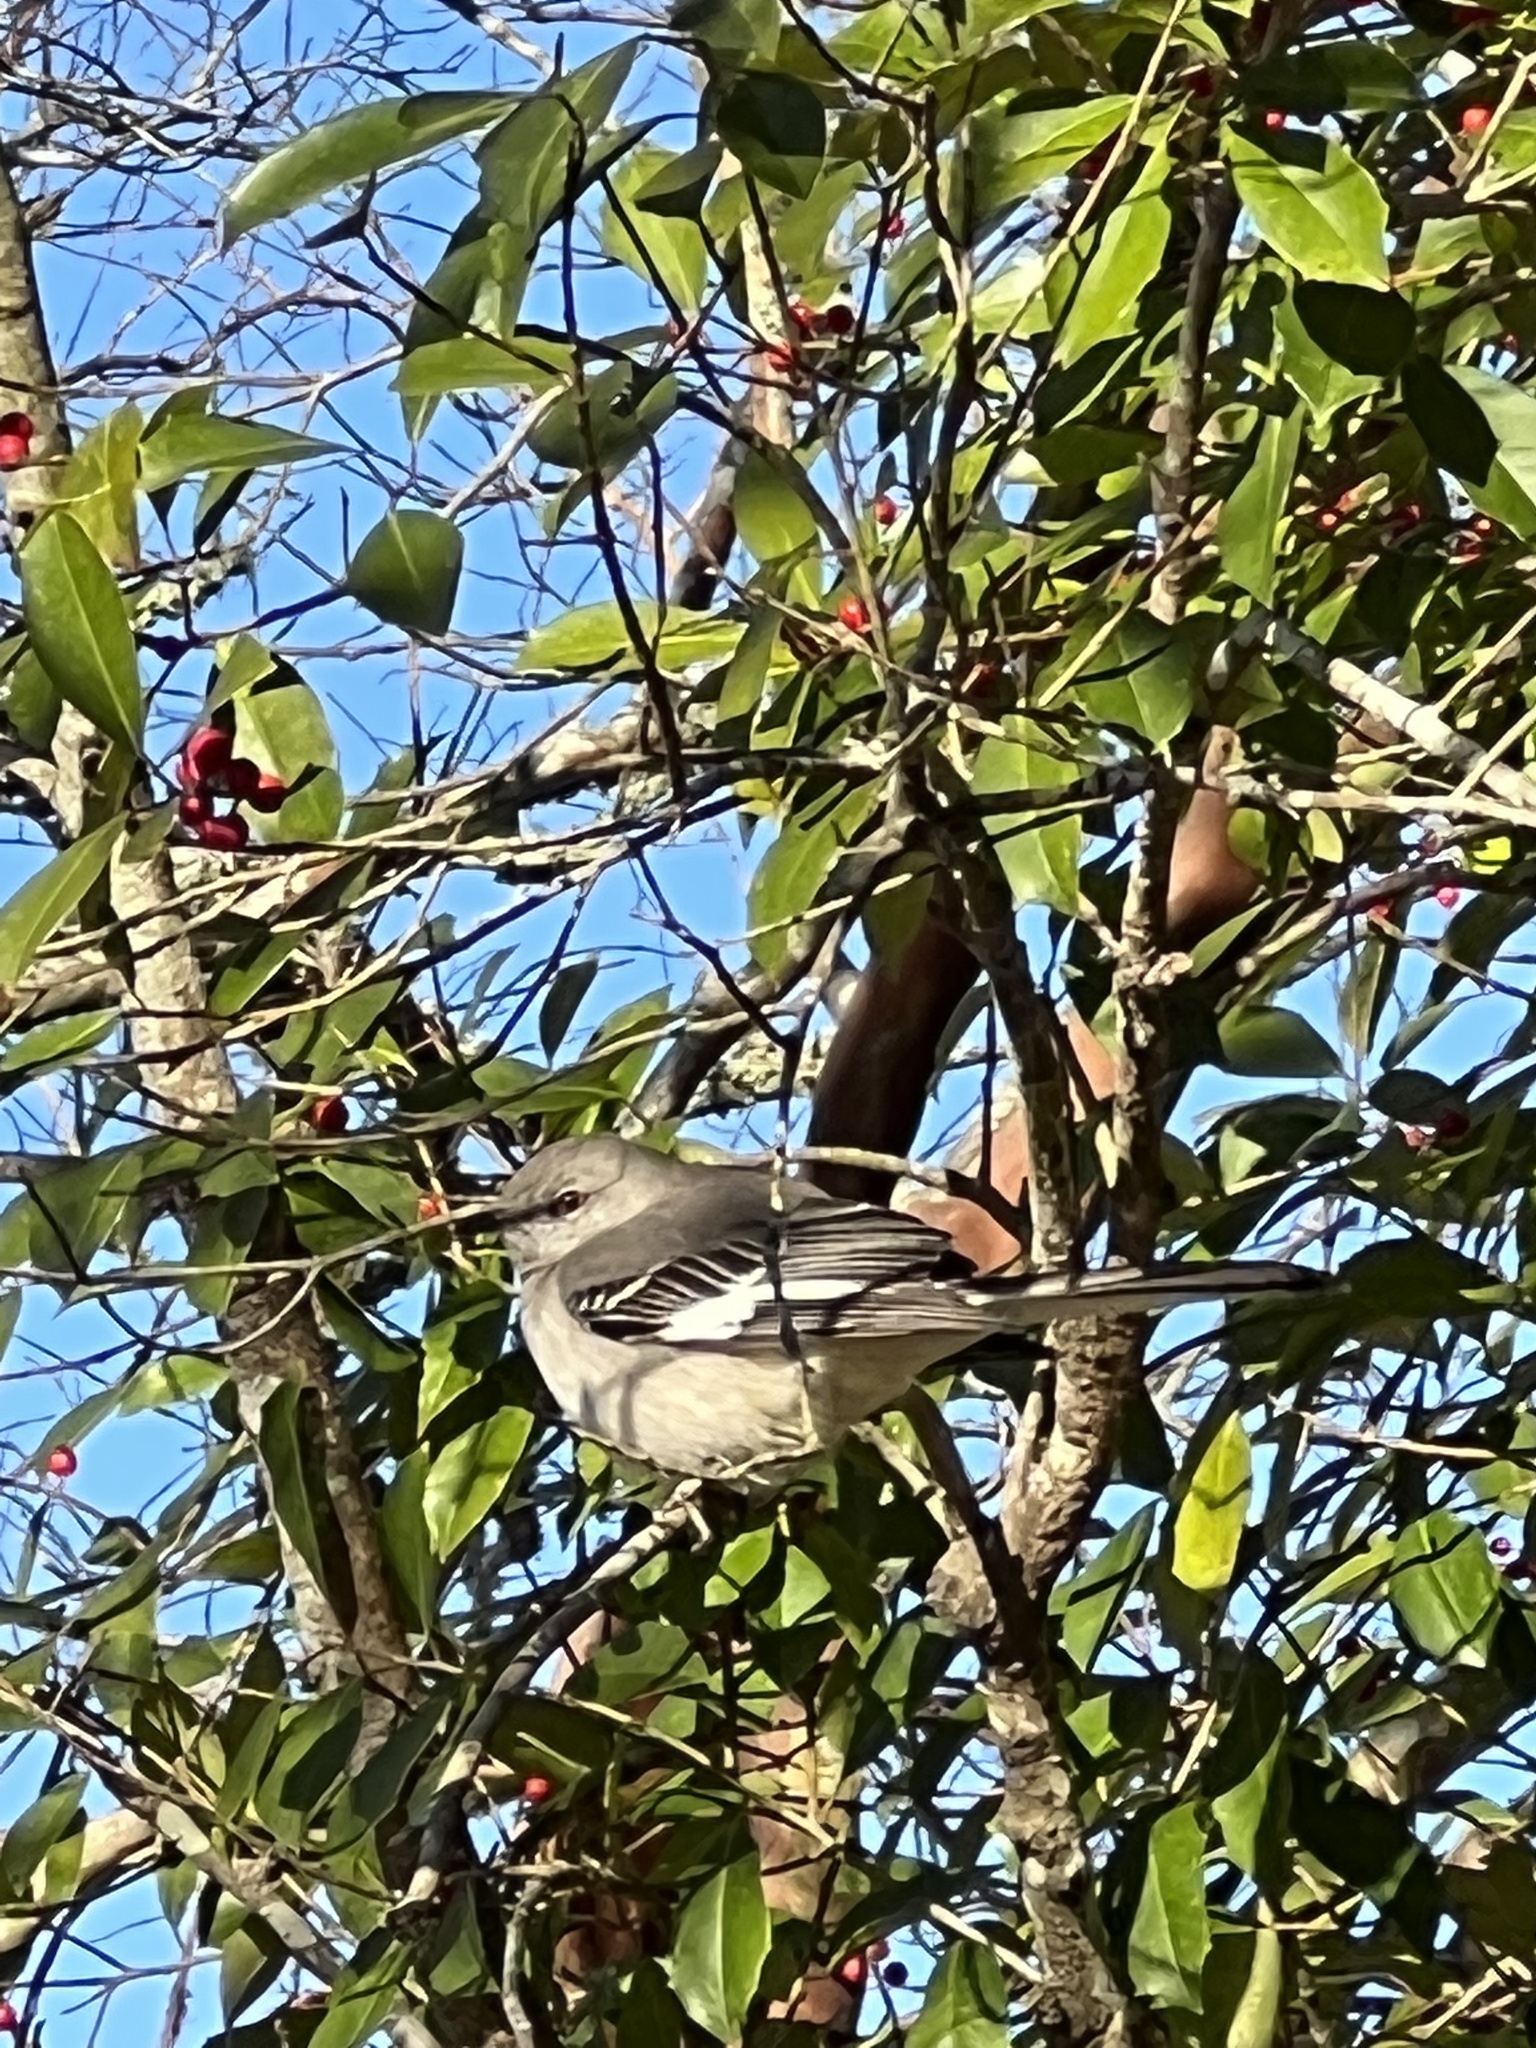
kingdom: Animalia
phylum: Chordata
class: Aves
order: Passeriformes
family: Mimidae
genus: Mimus
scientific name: Mimus polyglottos
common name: Northern mockingbird
